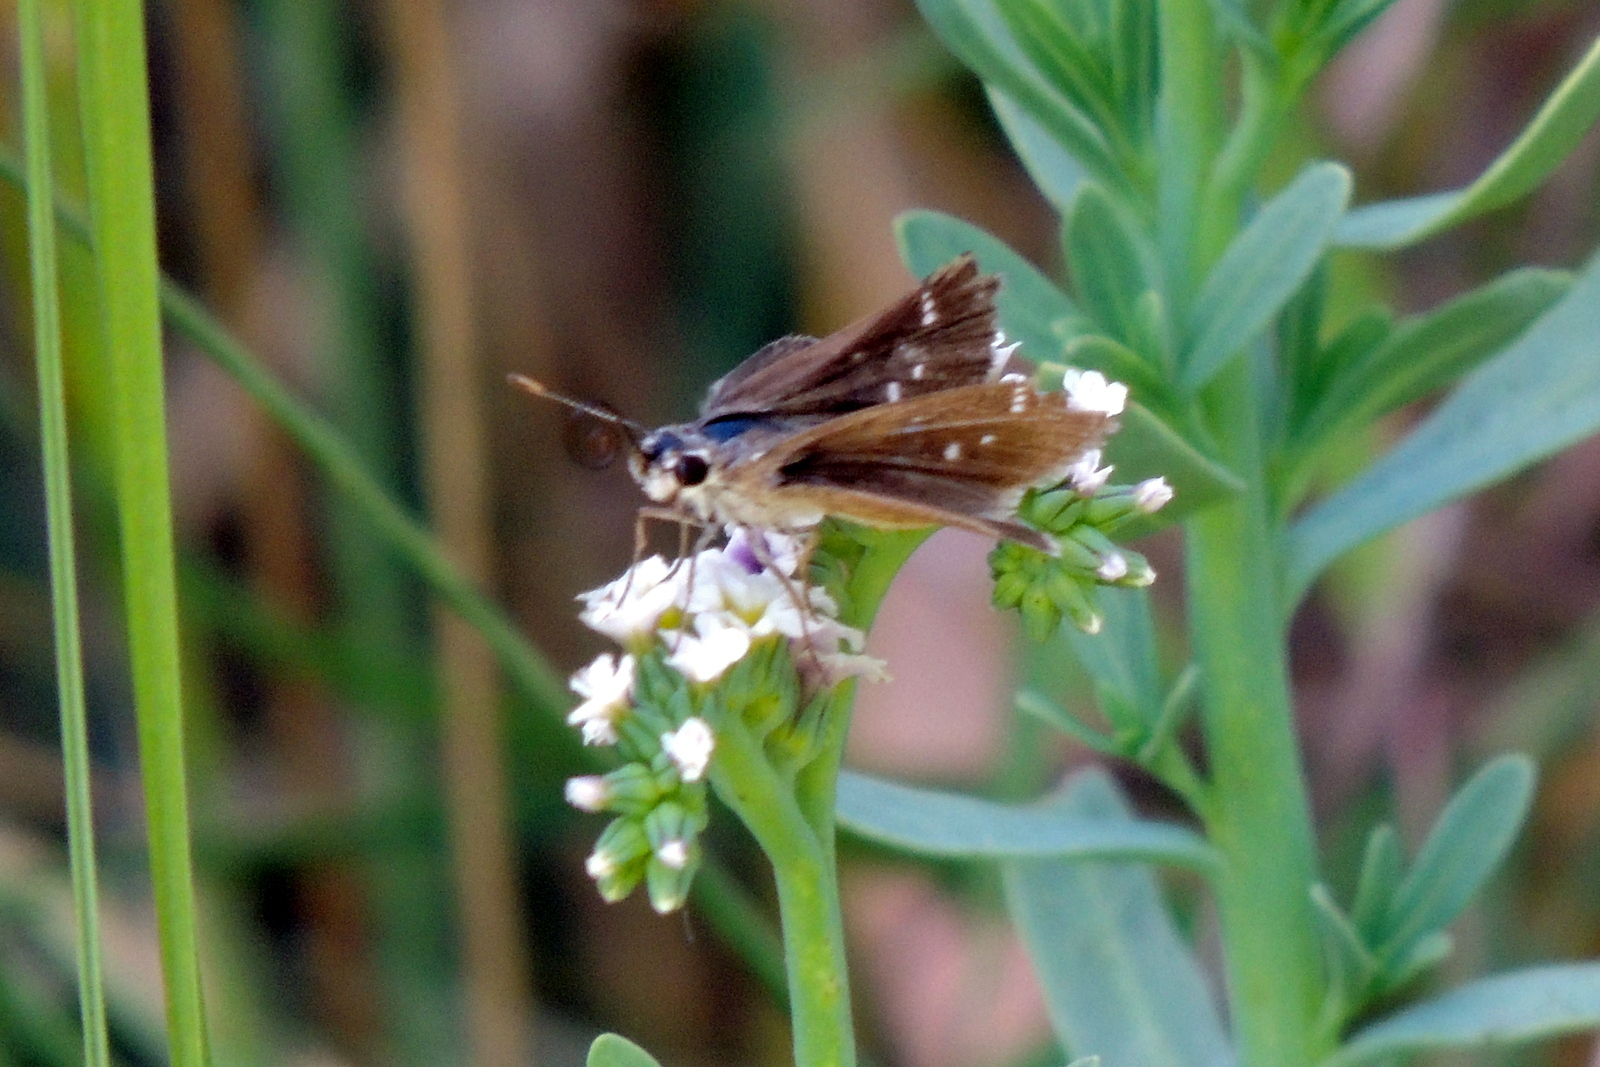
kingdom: Animalia
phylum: Arthropoda
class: Insecta
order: Lepidoptera
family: Hesperiidae
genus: Lerodea
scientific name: Lerodea eufala
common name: Eufala skipper
